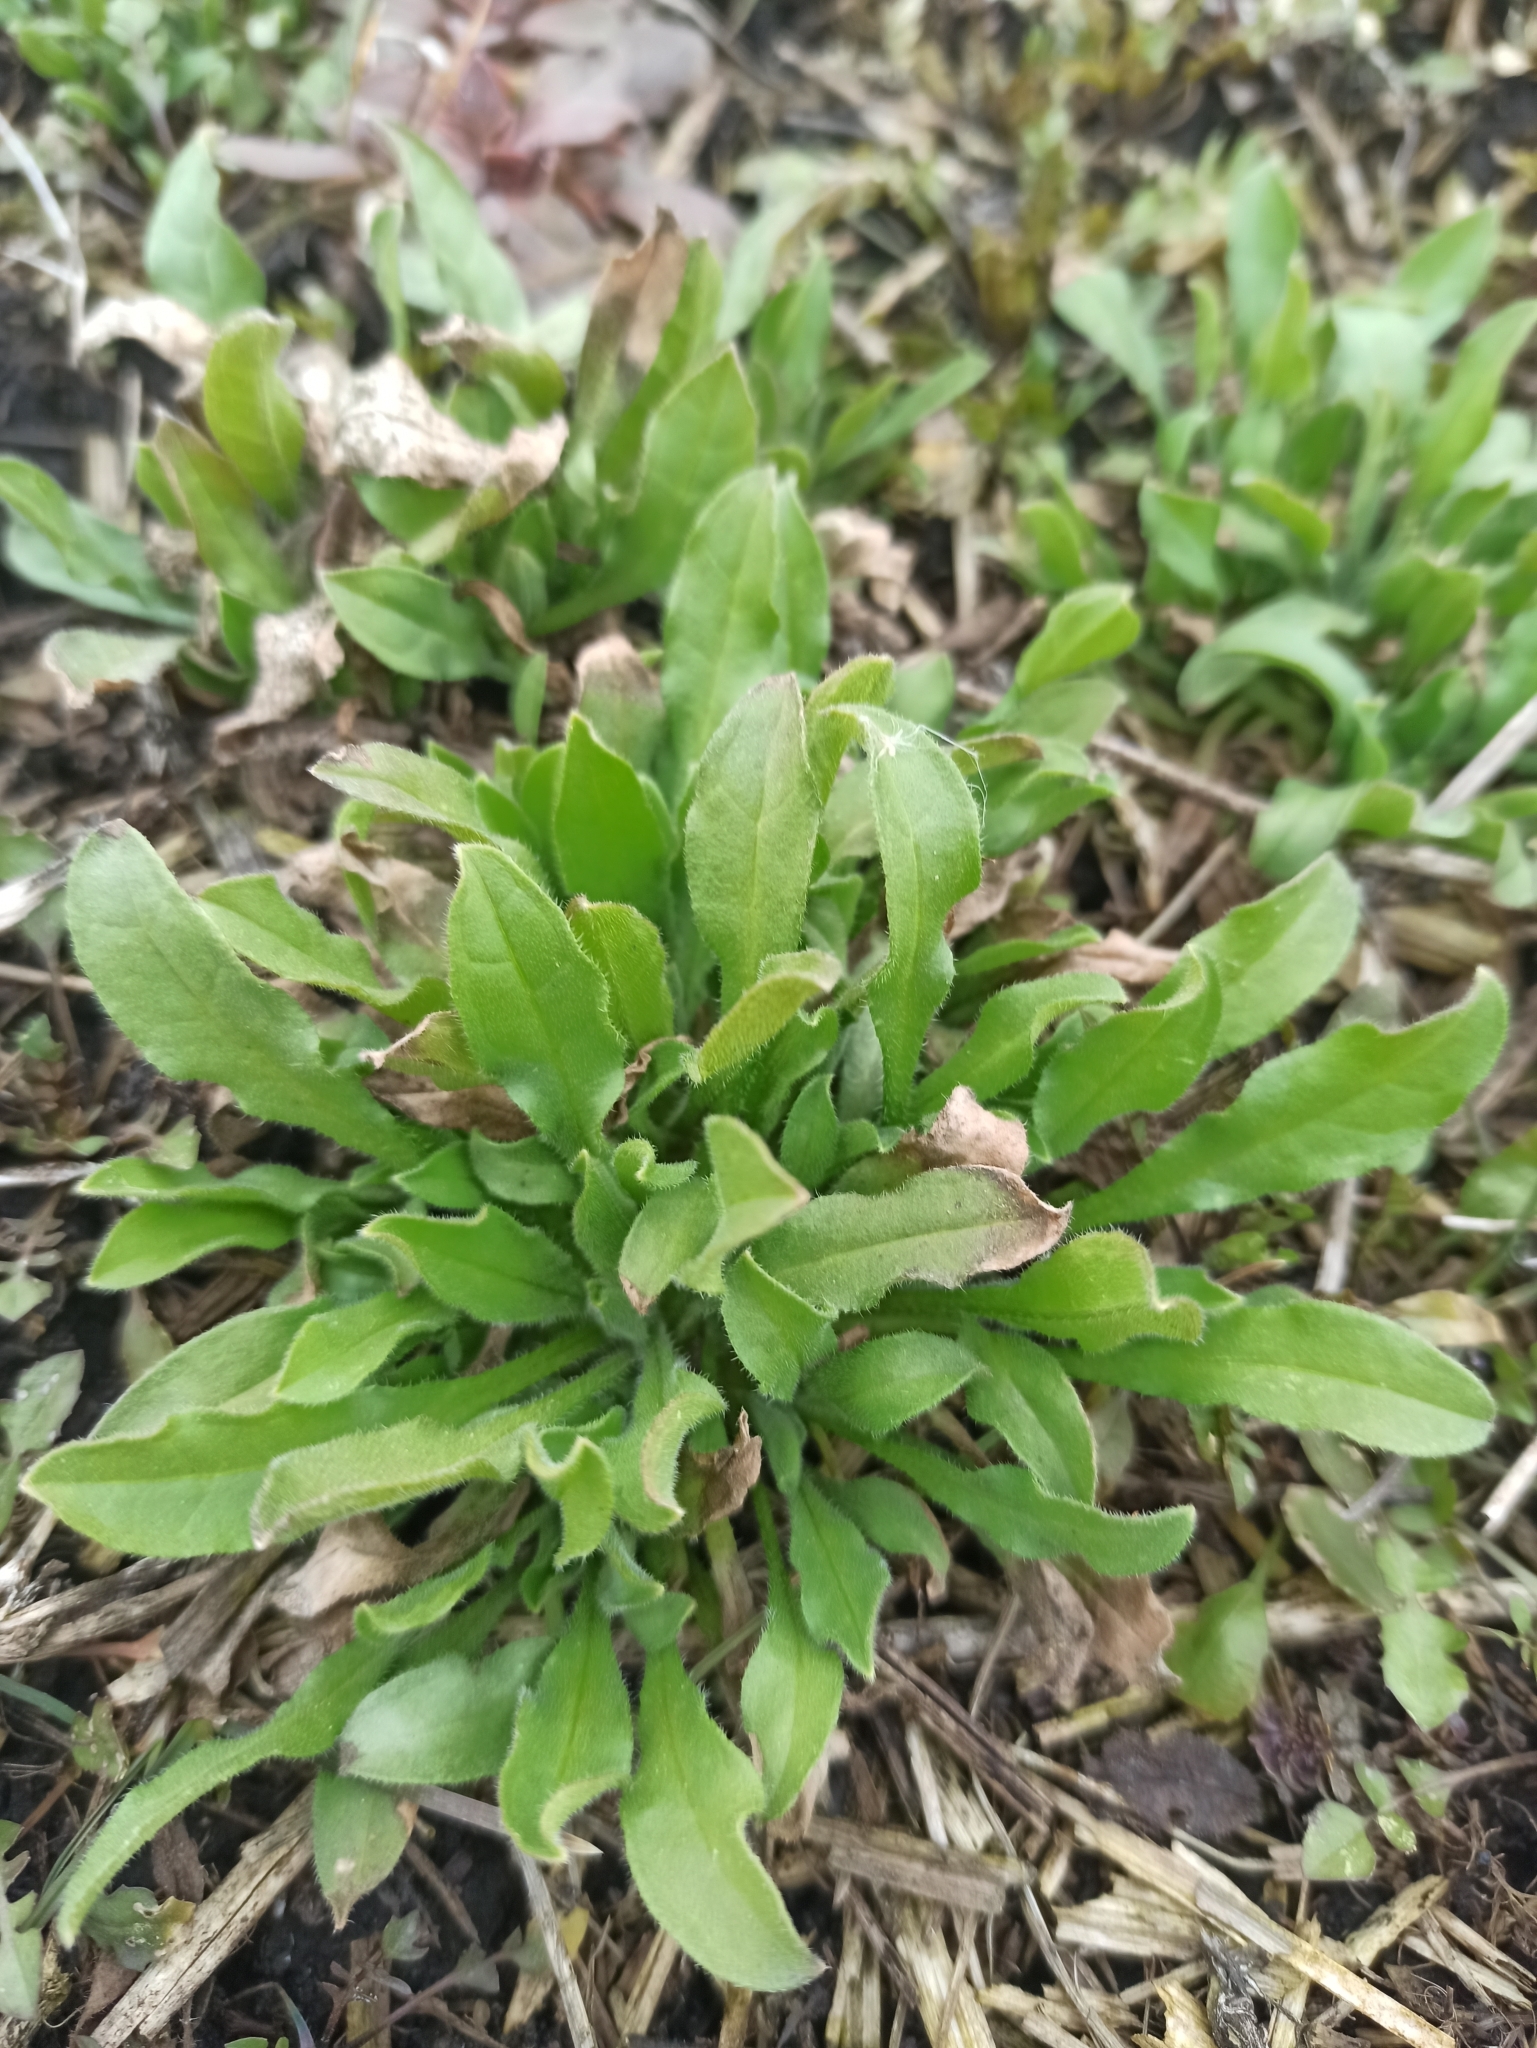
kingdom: Plantae
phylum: Tracheophyta
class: Magnoliopsida
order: Boraginales
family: Boraginaceae
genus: Asperugo
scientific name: Asperugo procumbens
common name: Madwort
